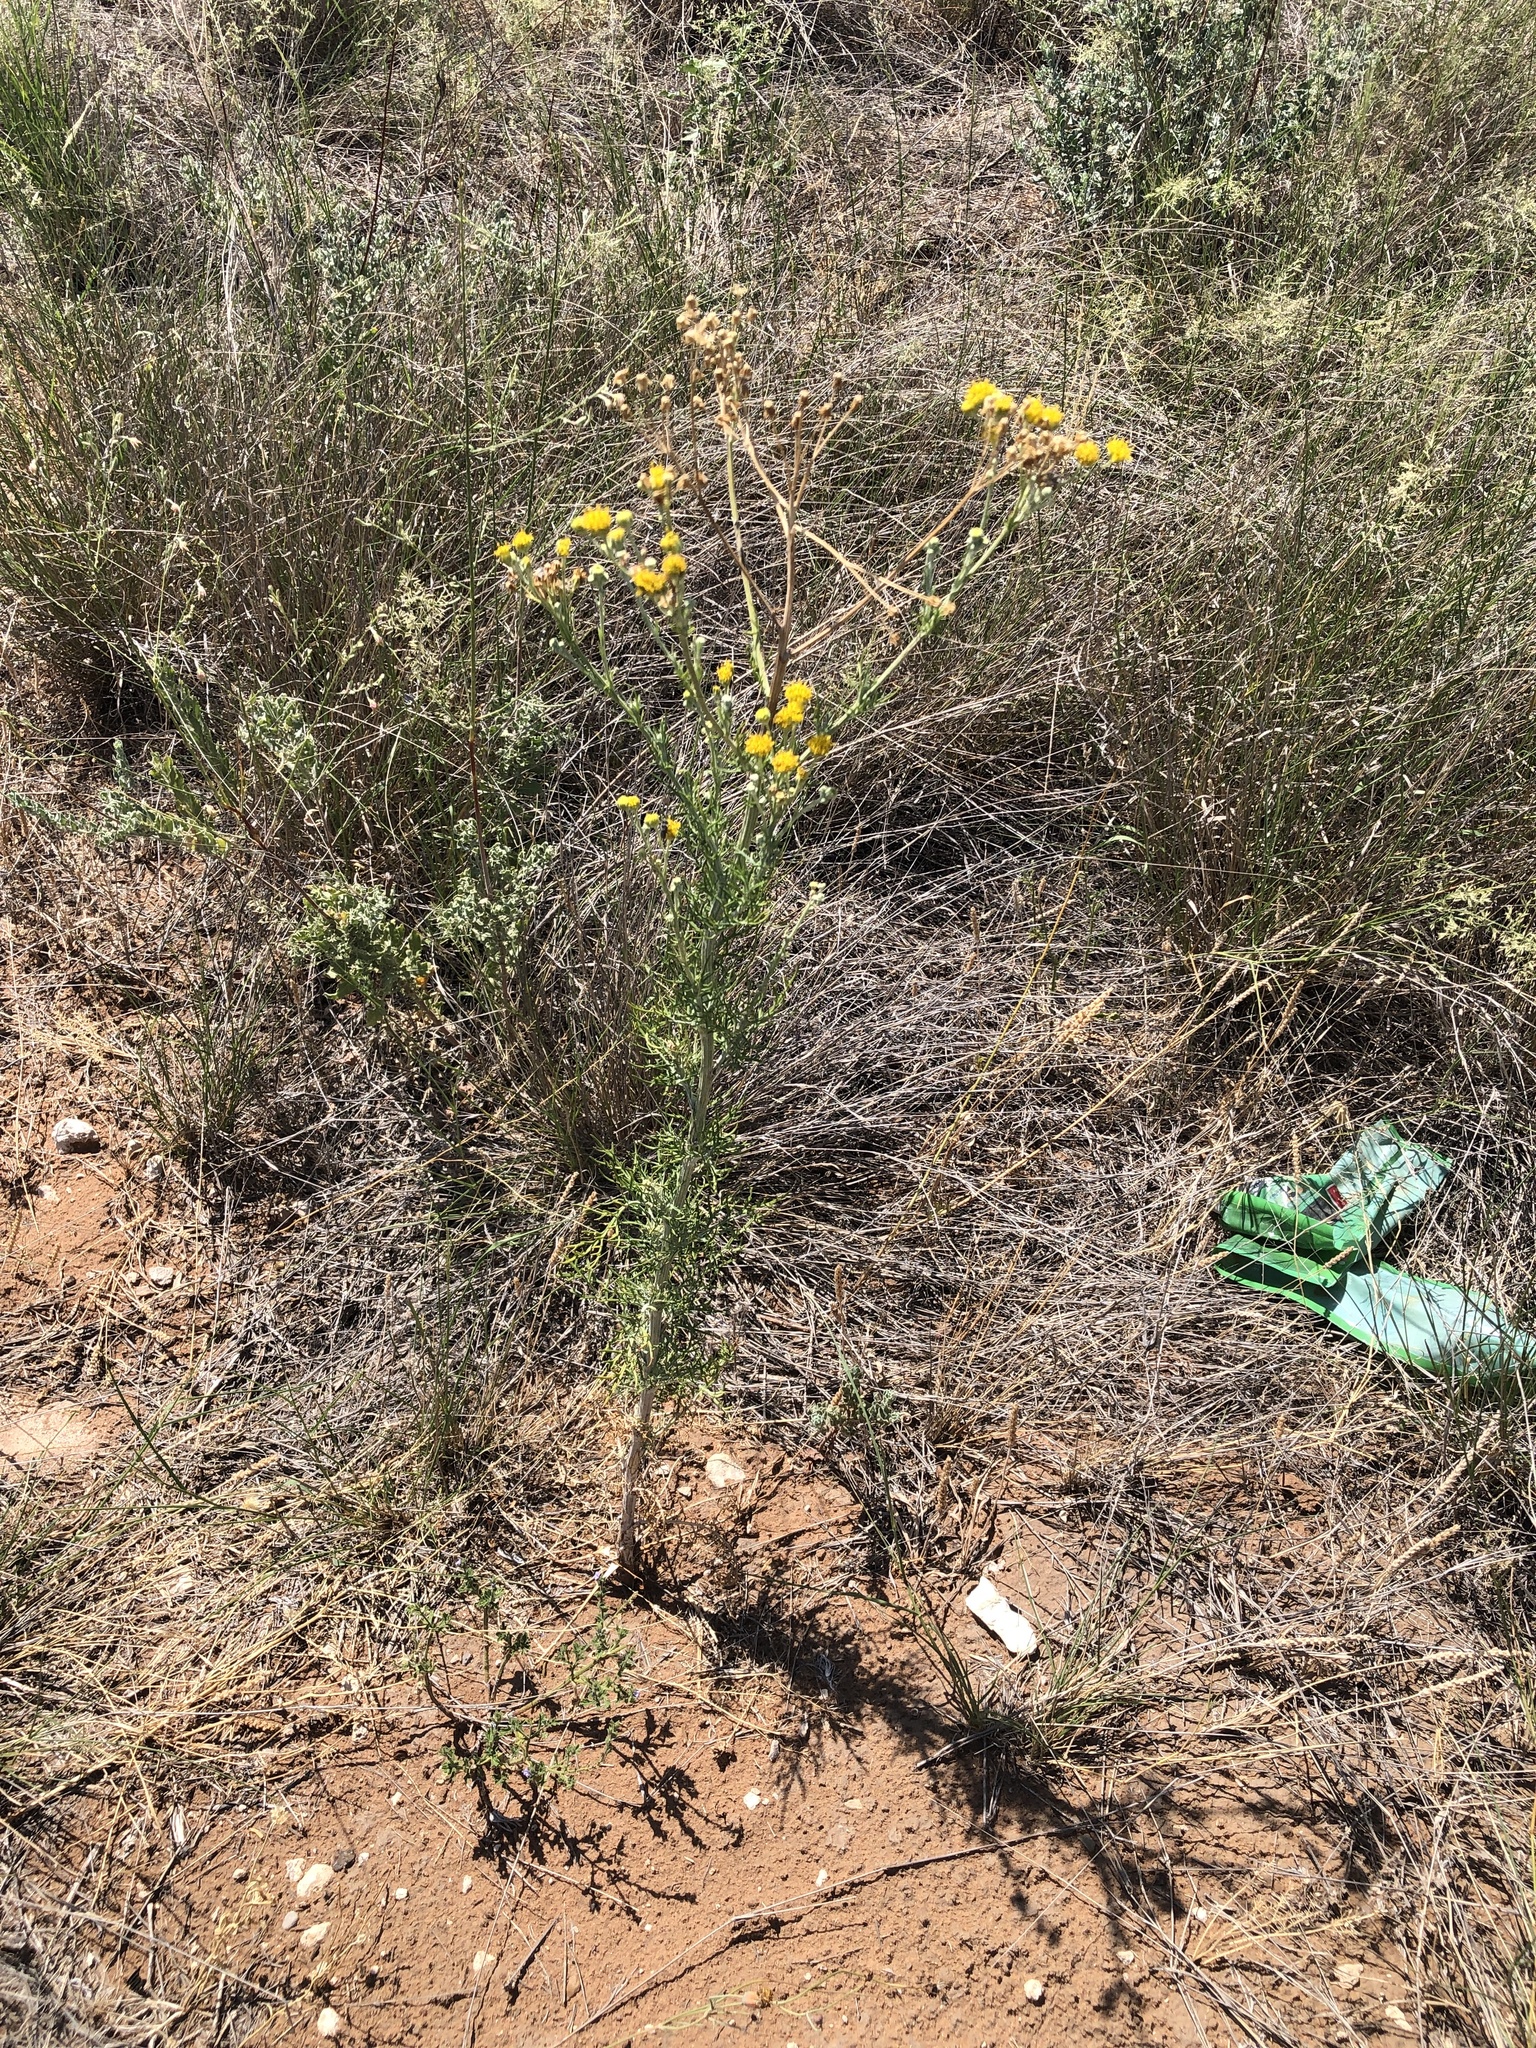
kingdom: Plantae
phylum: Tracheophyta
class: Magnoliopsida
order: Asterales
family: Asteraceae
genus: Hymenopappus
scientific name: Hymenopappus flavescens
